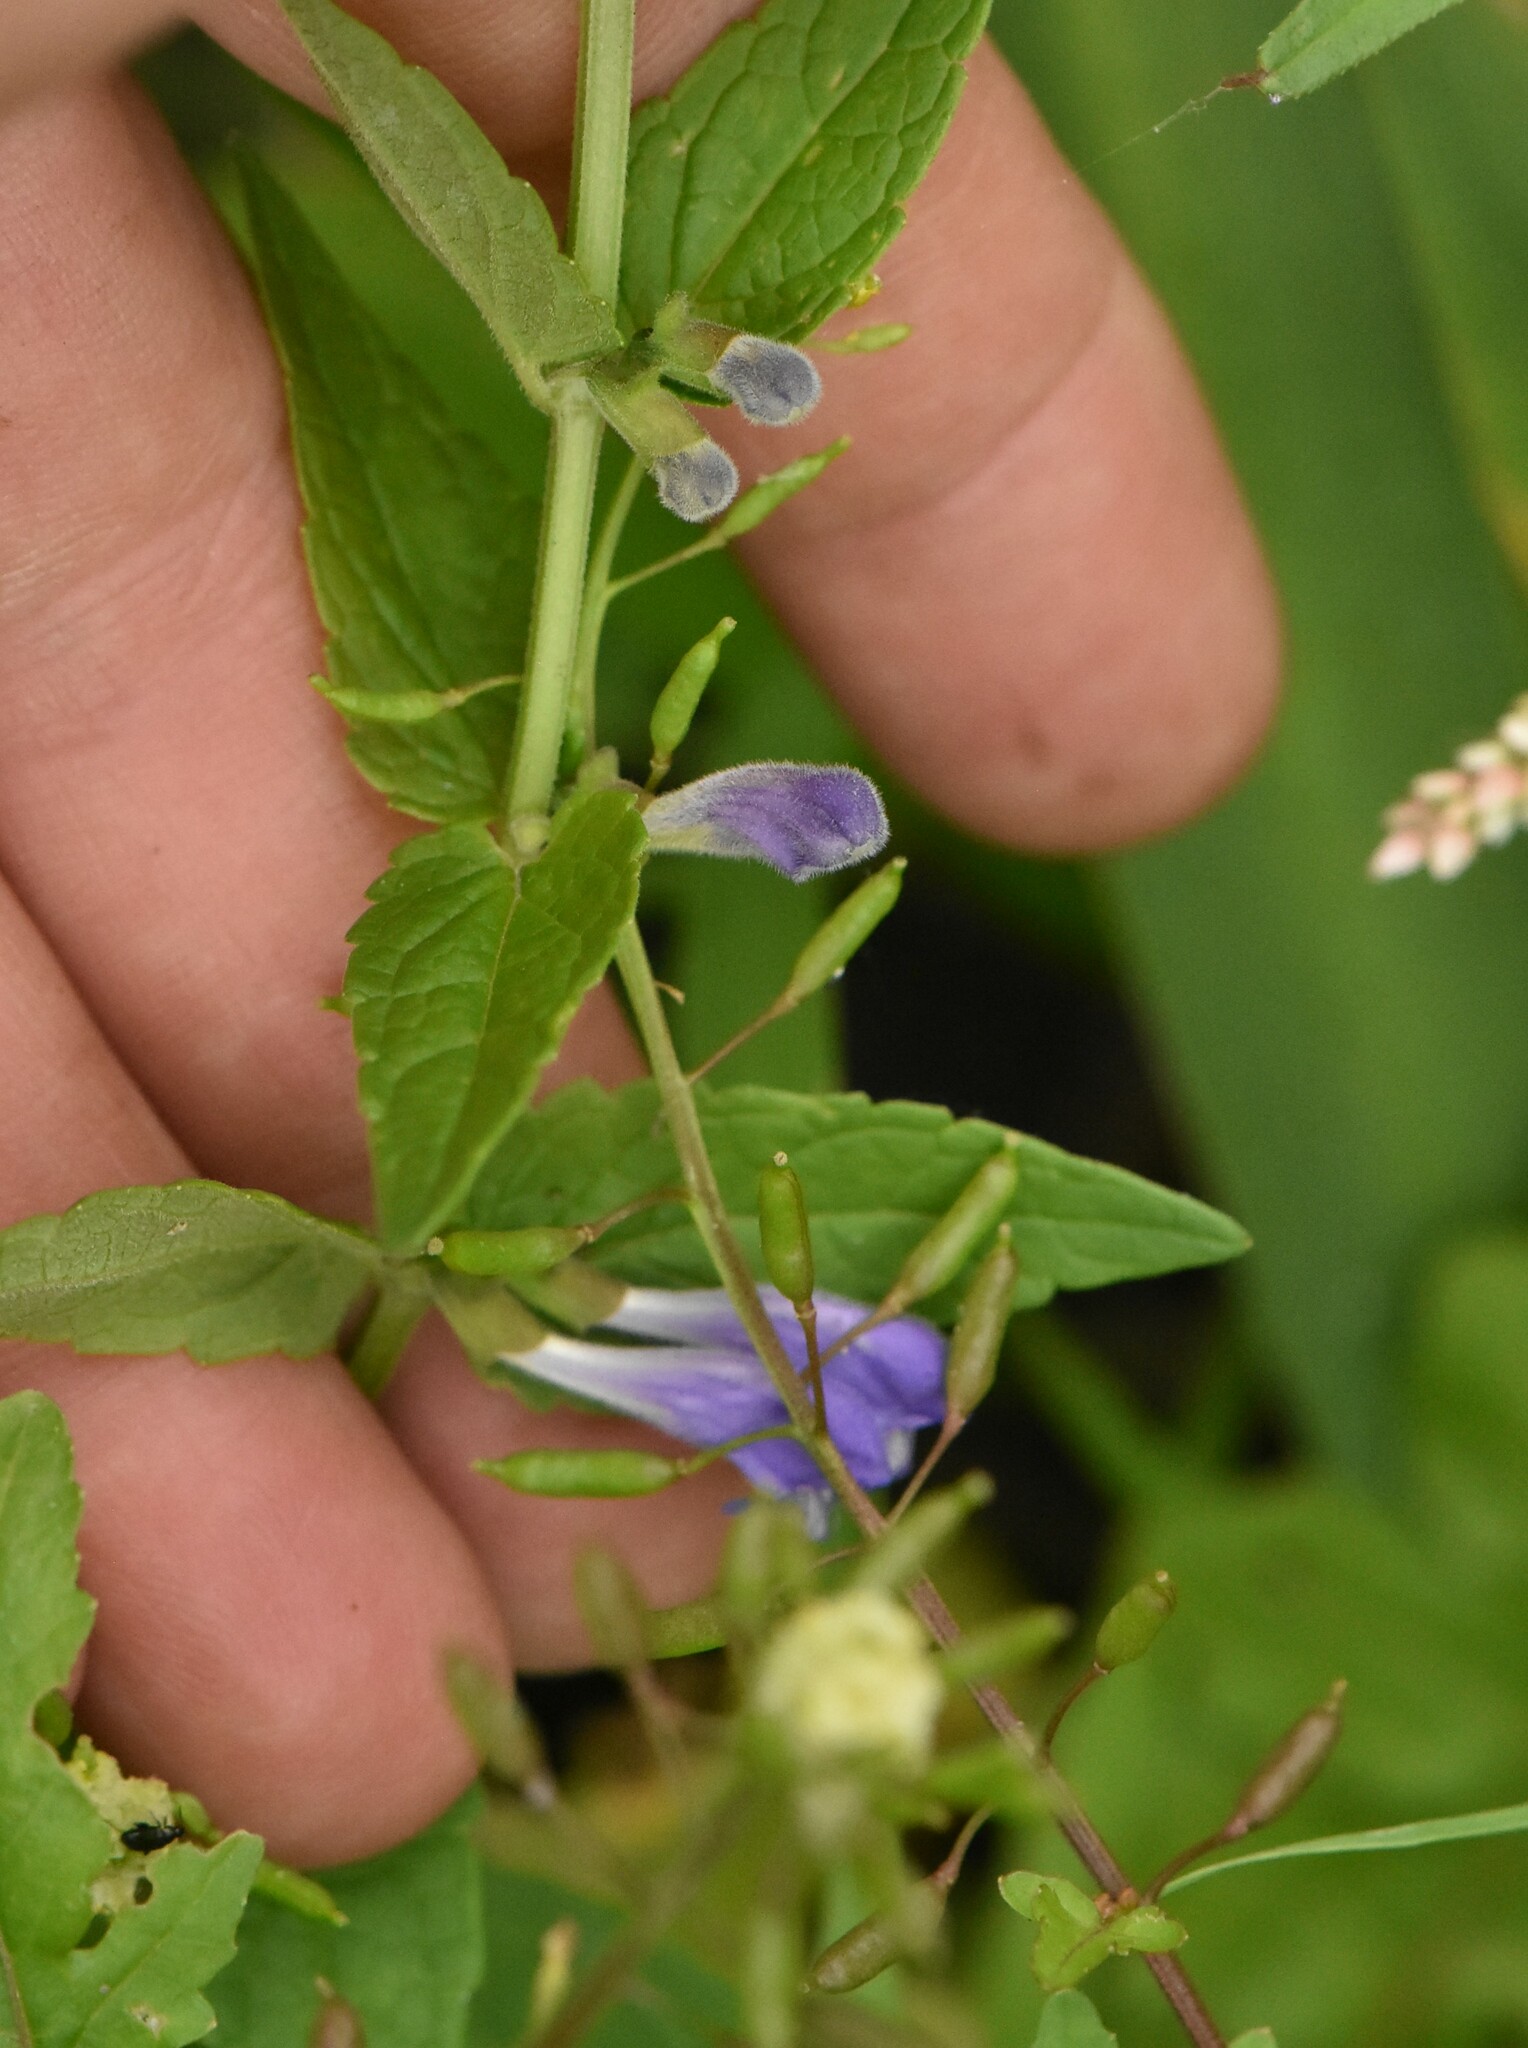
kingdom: Plantae
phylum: Tracheophyta
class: Magnoliopsida
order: Lamiales
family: Lamiaceae
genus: Scutellaria
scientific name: Scutellaria galericulata
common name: Skullcap
